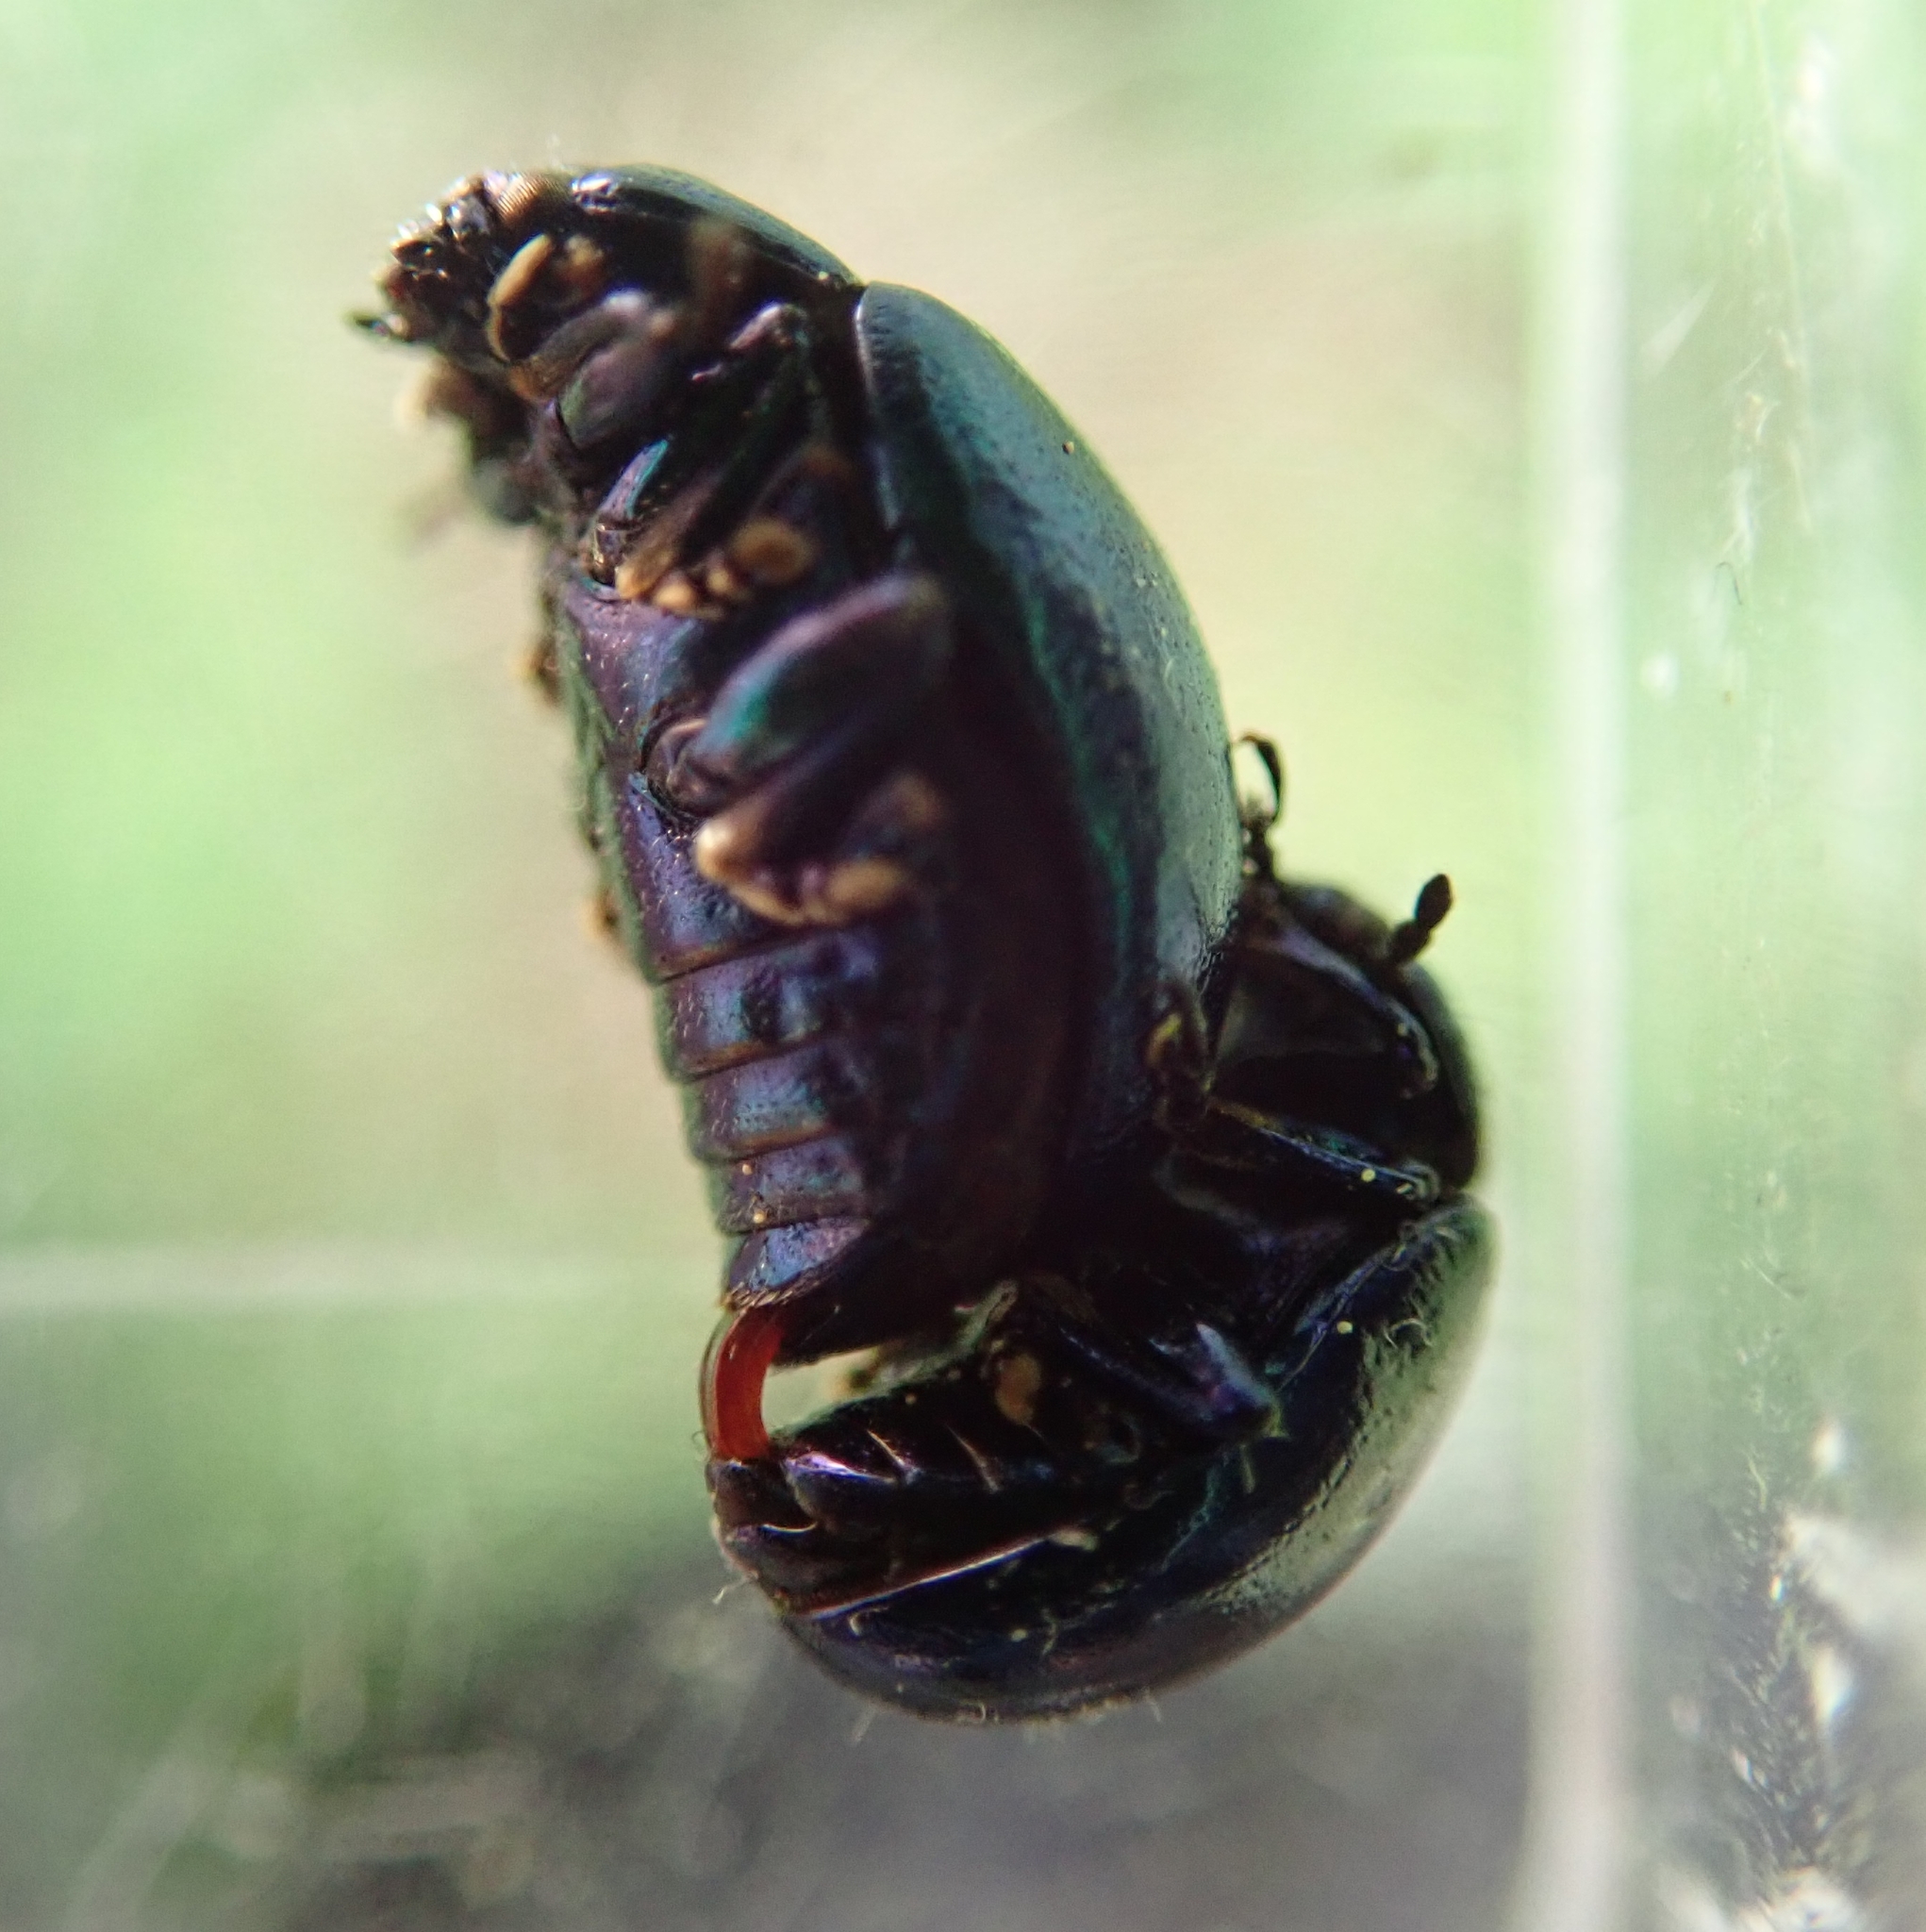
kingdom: Animalia
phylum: Arthropoda
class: Insecta
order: Coleoptera
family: Chrysomelidae
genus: Chrysolina
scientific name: Chrysolina coerulans
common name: Blue mint beetle
